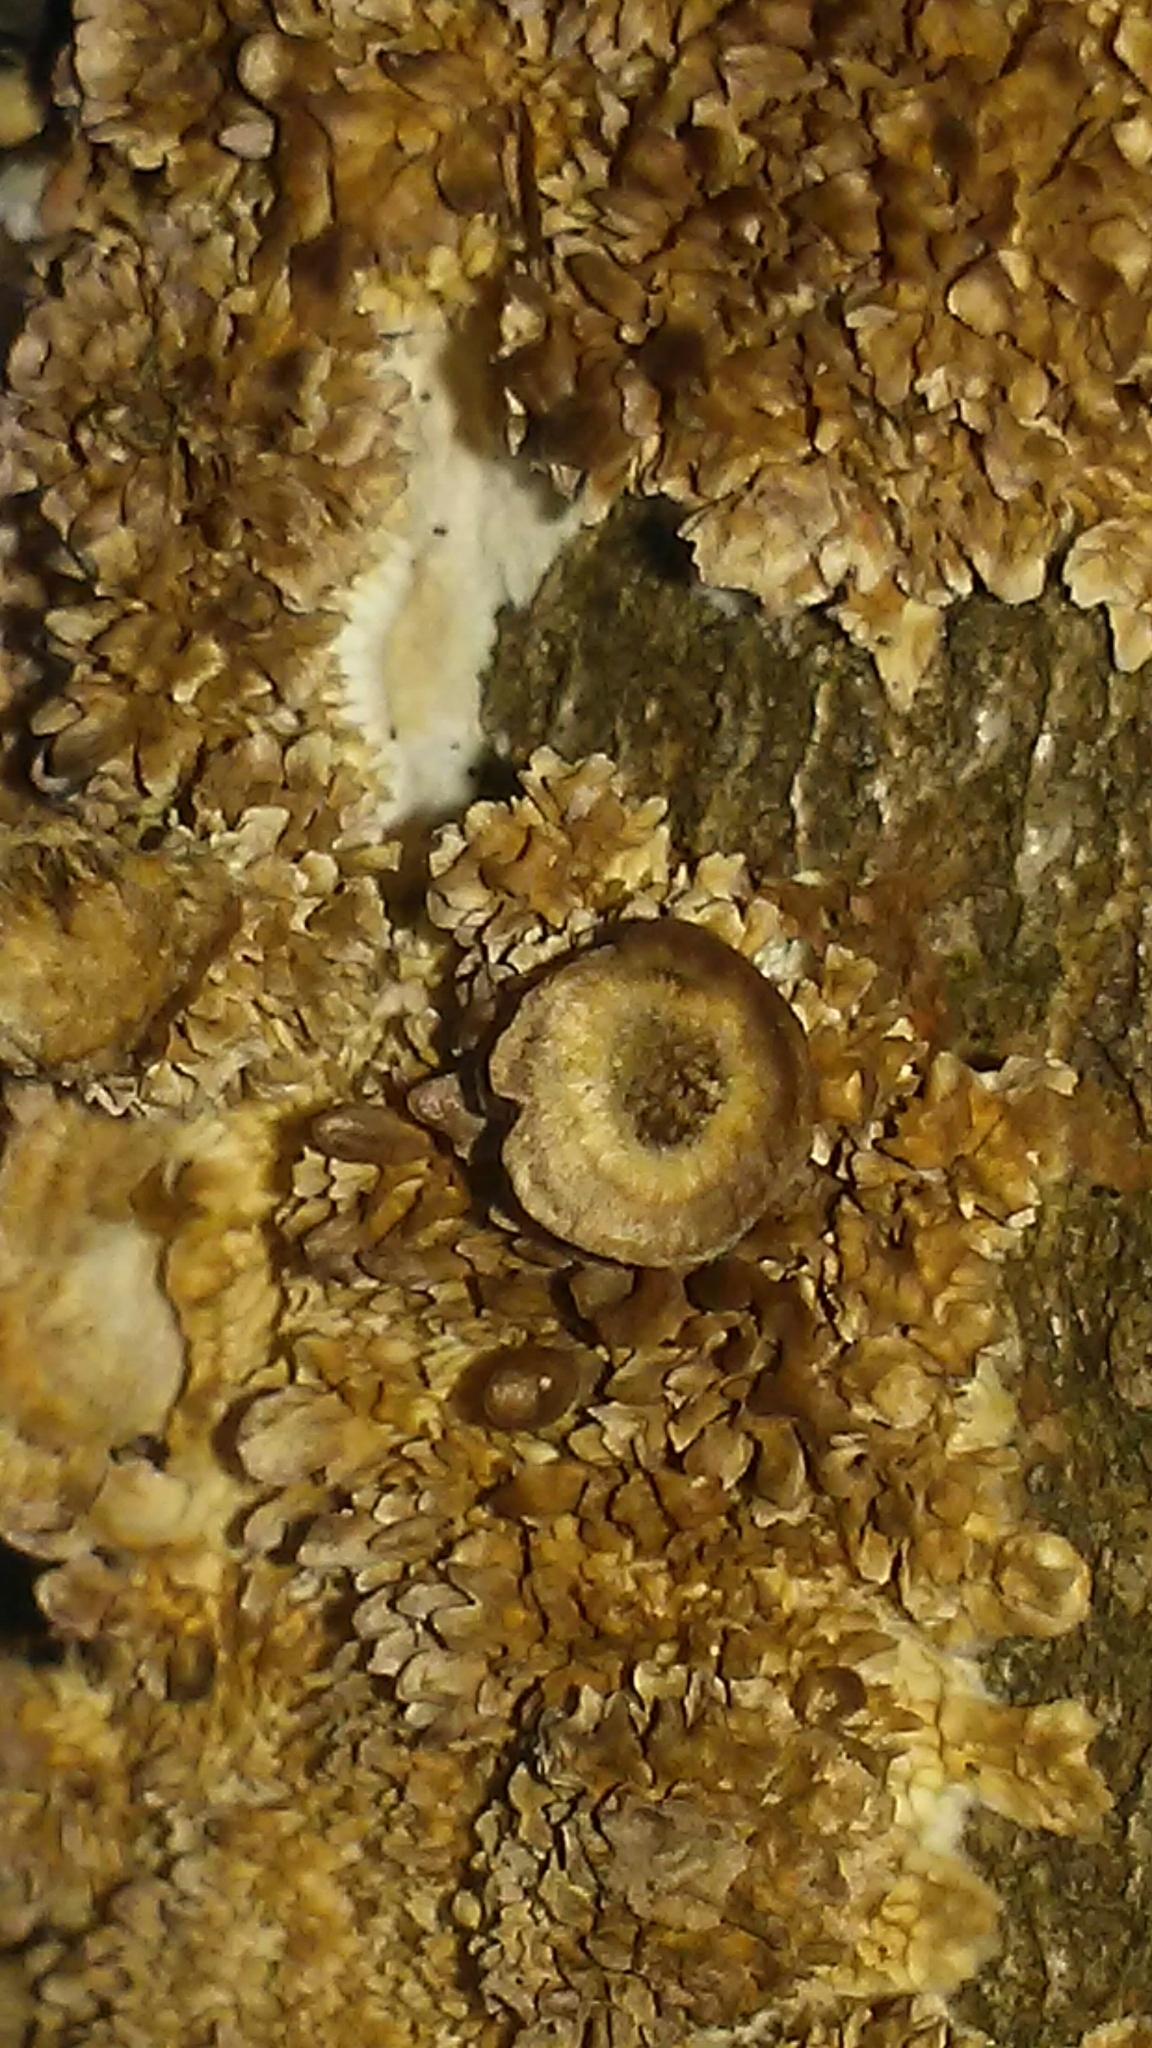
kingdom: Fungi
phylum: Basidiomycota
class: Agaricomycetes
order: Hymenochaetales
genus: Trichaptum
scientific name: Trichaptum biforme
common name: Violet-toothed polypore
